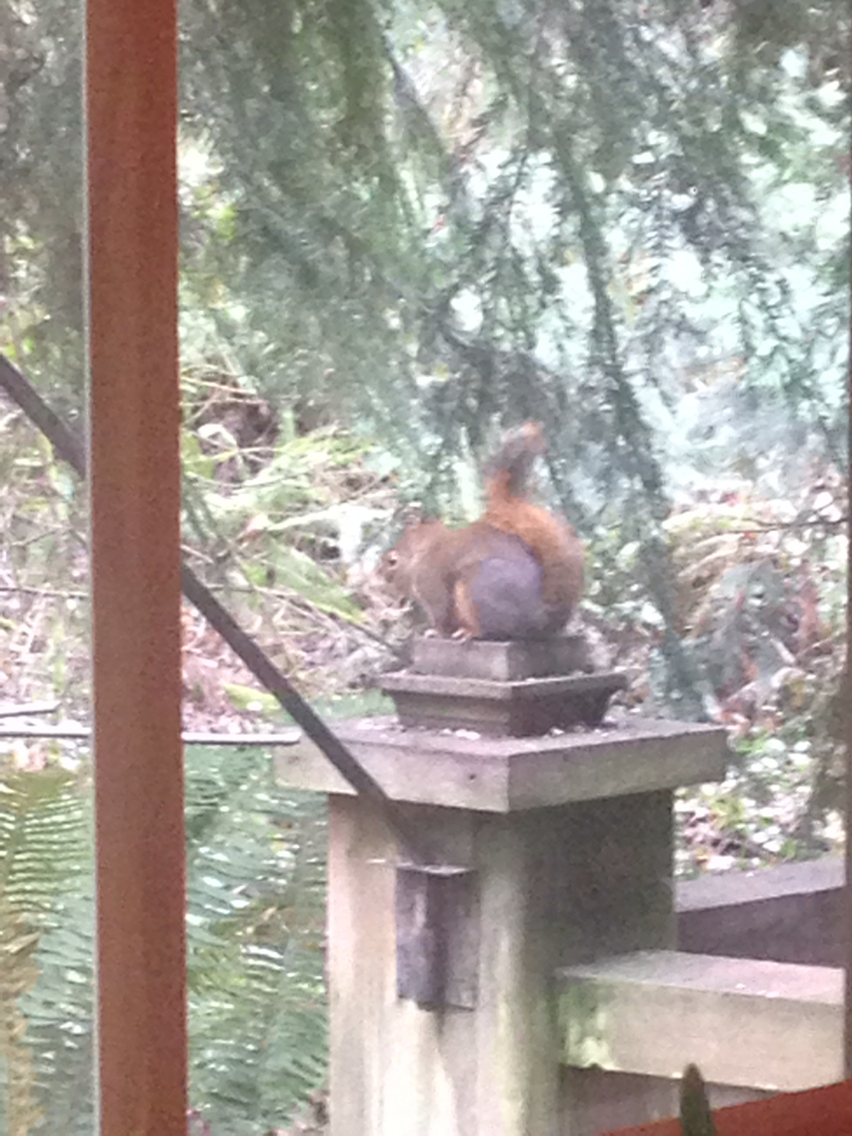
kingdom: Animalia
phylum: Chordata
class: Mammalia
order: Rodentia
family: Sciuridae
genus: Tamiasciurus
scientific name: Tamiasciurus douglasii
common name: Douglas's squirrel
